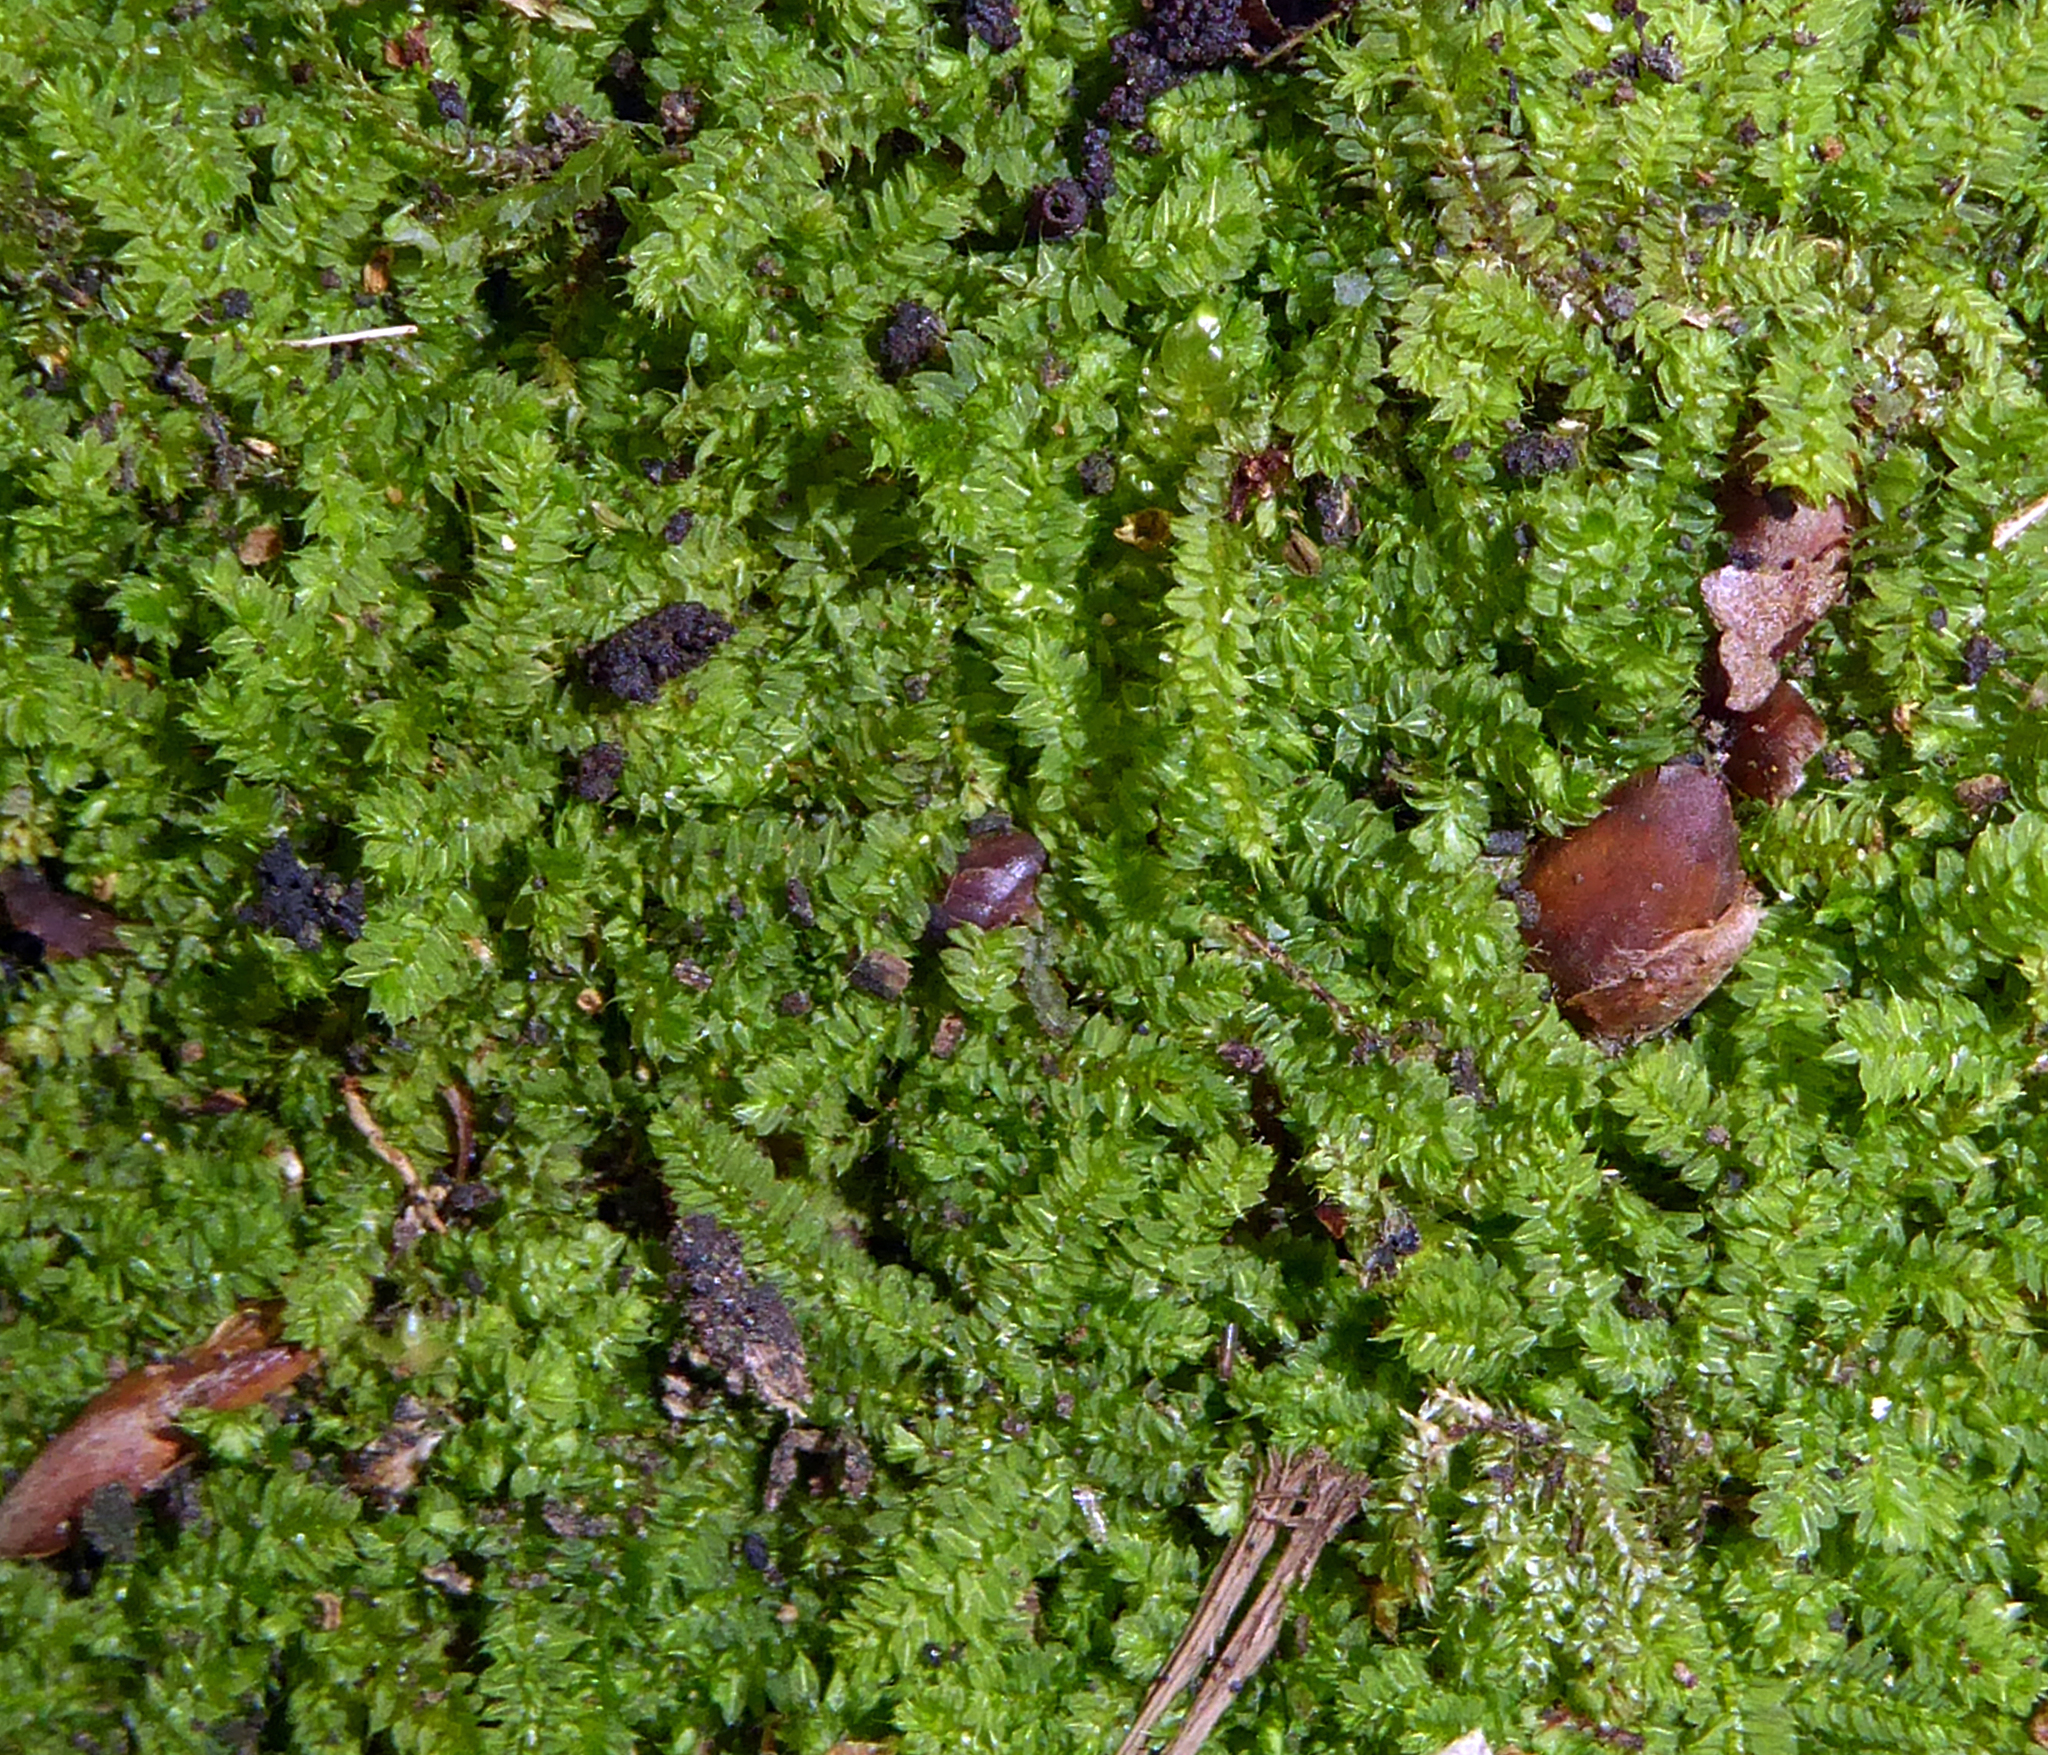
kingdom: Plantae
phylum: Bryophyta
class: Bryopsida
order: Hypnodendrales
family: Racopilaceae
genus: Racopilum
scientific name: Racopilum cuspidigerum
